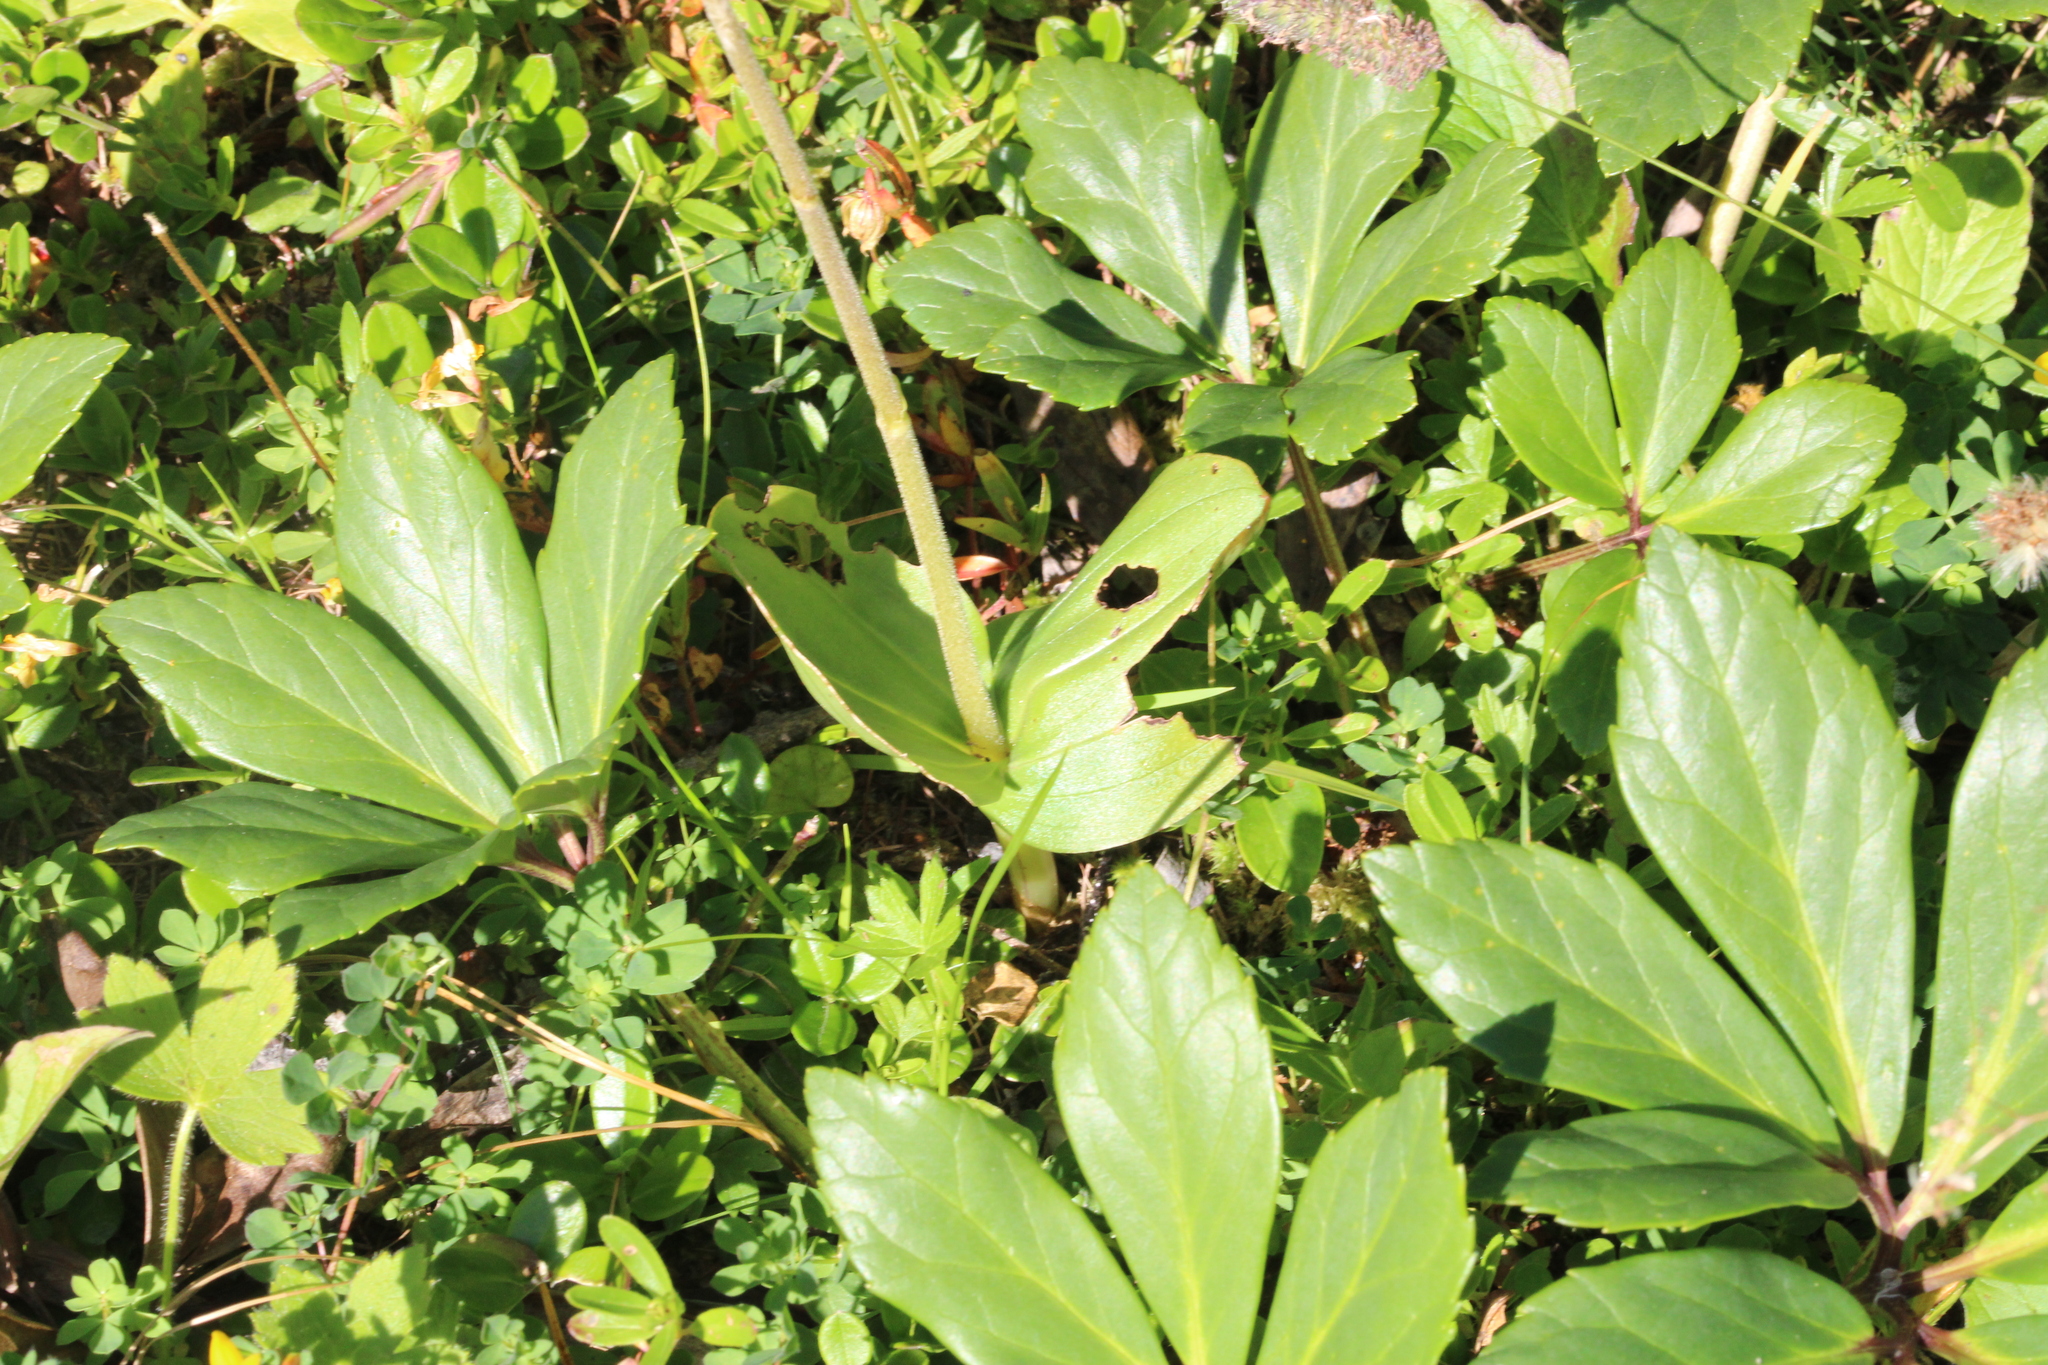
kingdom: Plantae
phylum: Tracheophyta
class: Liliopsida
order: Asparagales
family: Orchidaceae
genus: Neottia
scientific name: Neottia ovata
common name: Common twayblade
